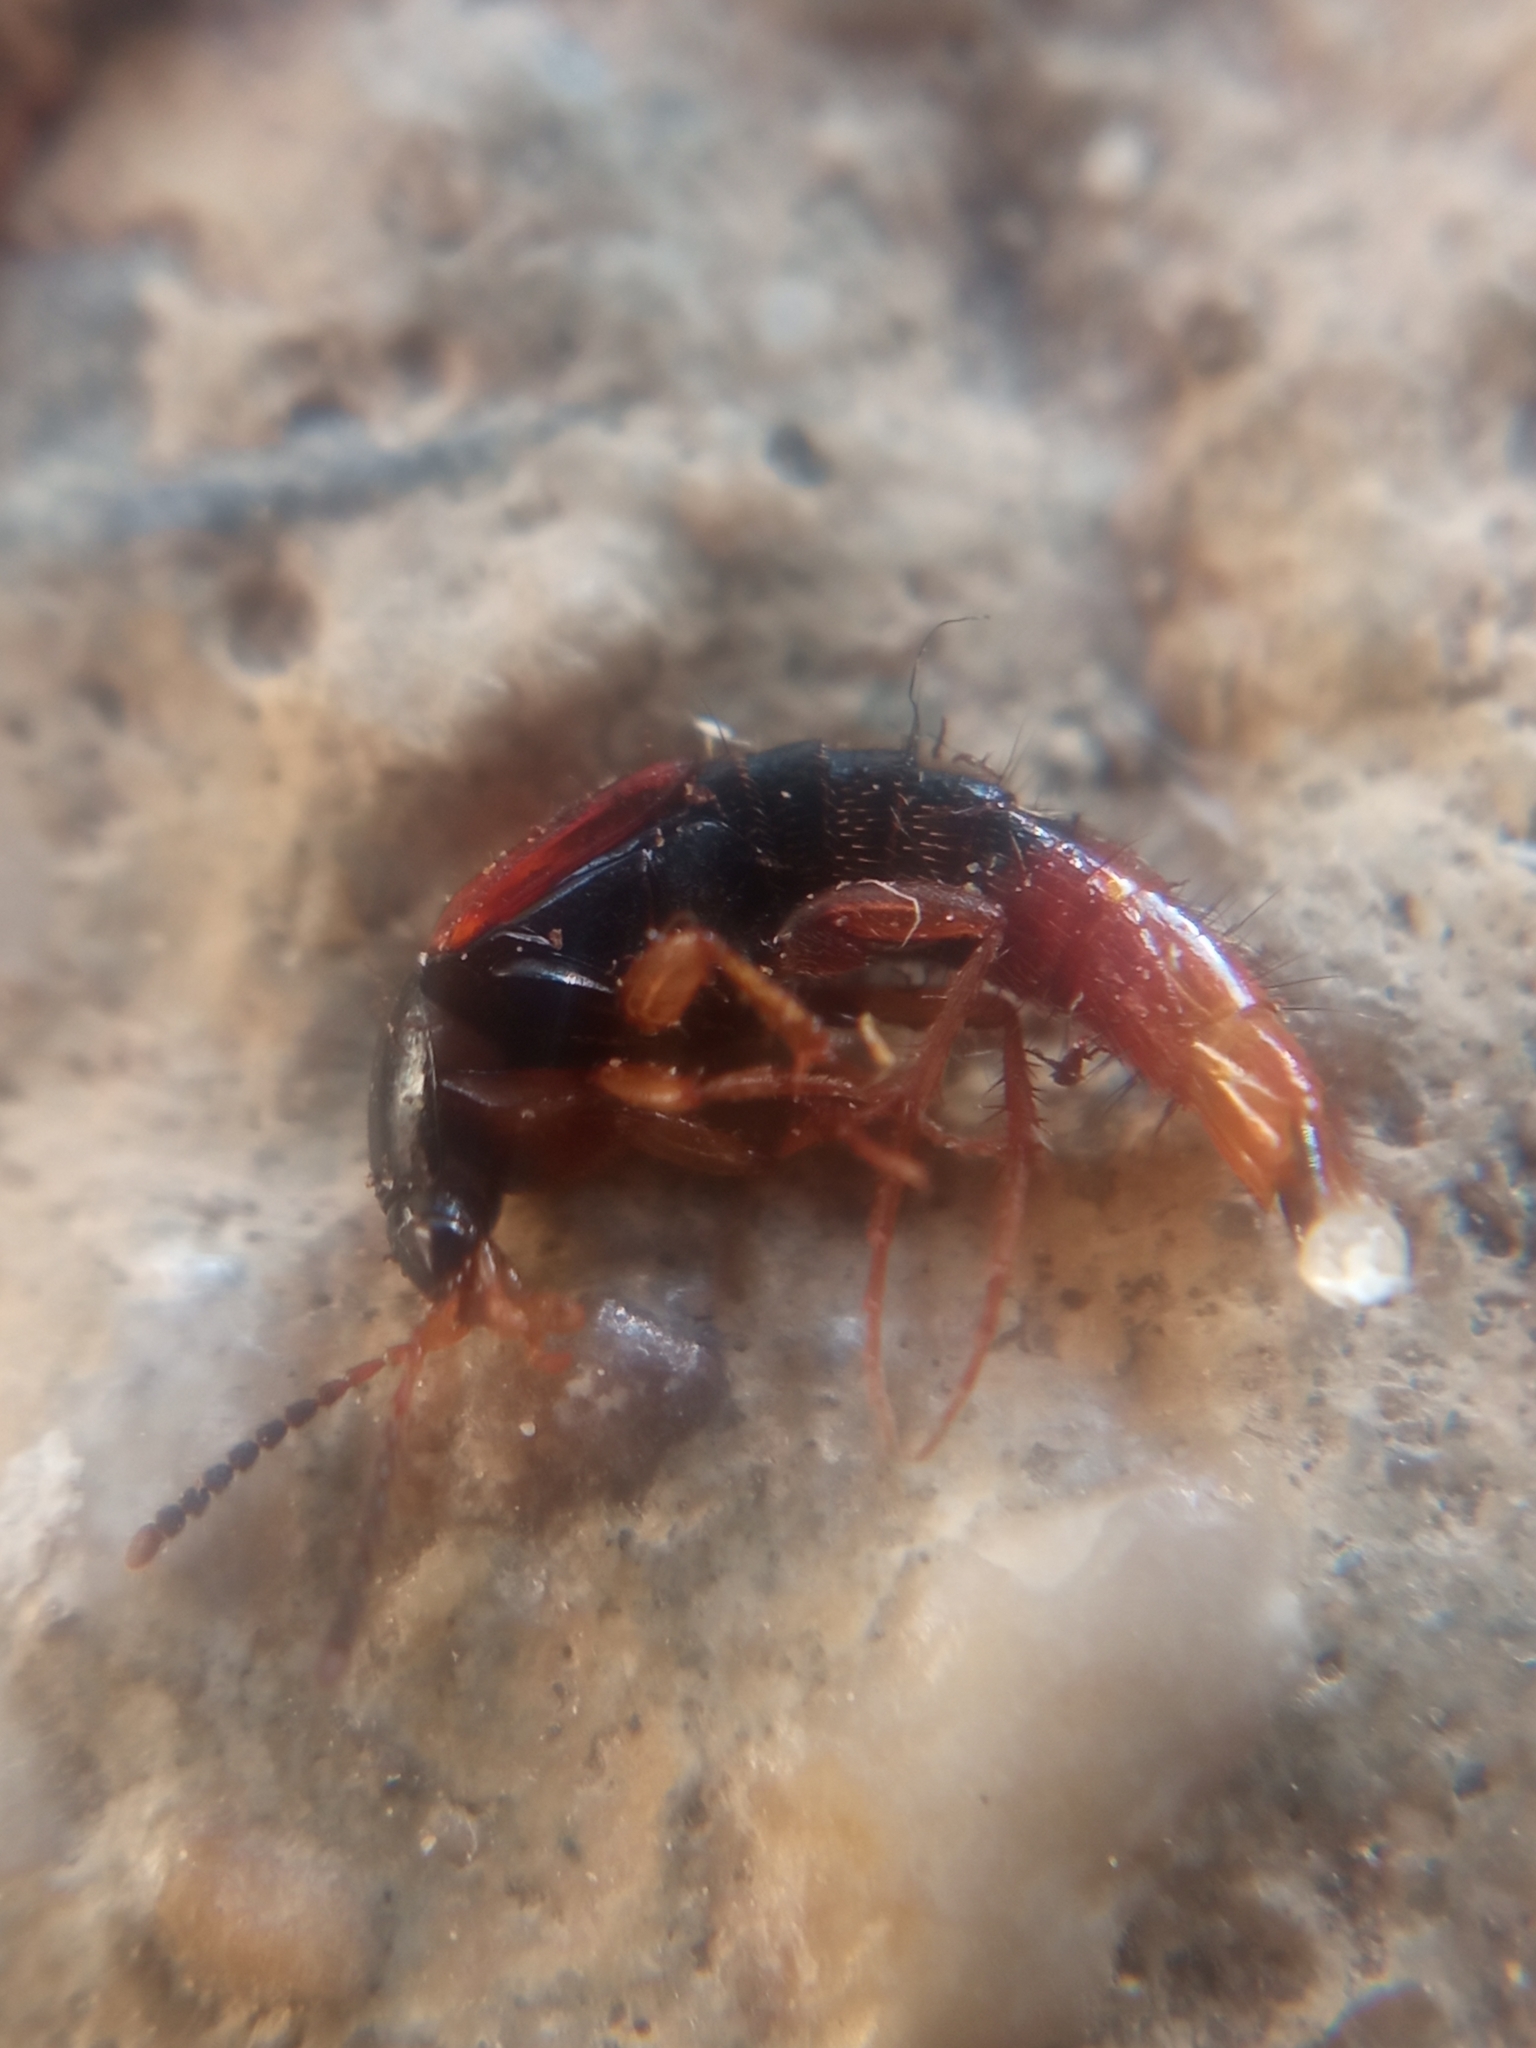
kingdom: Animalia
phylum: Arthropoda
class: Insecta
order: Coleoptera
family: Staphylinidae
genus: Bolitobius
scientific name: Bolitobius castaneus
